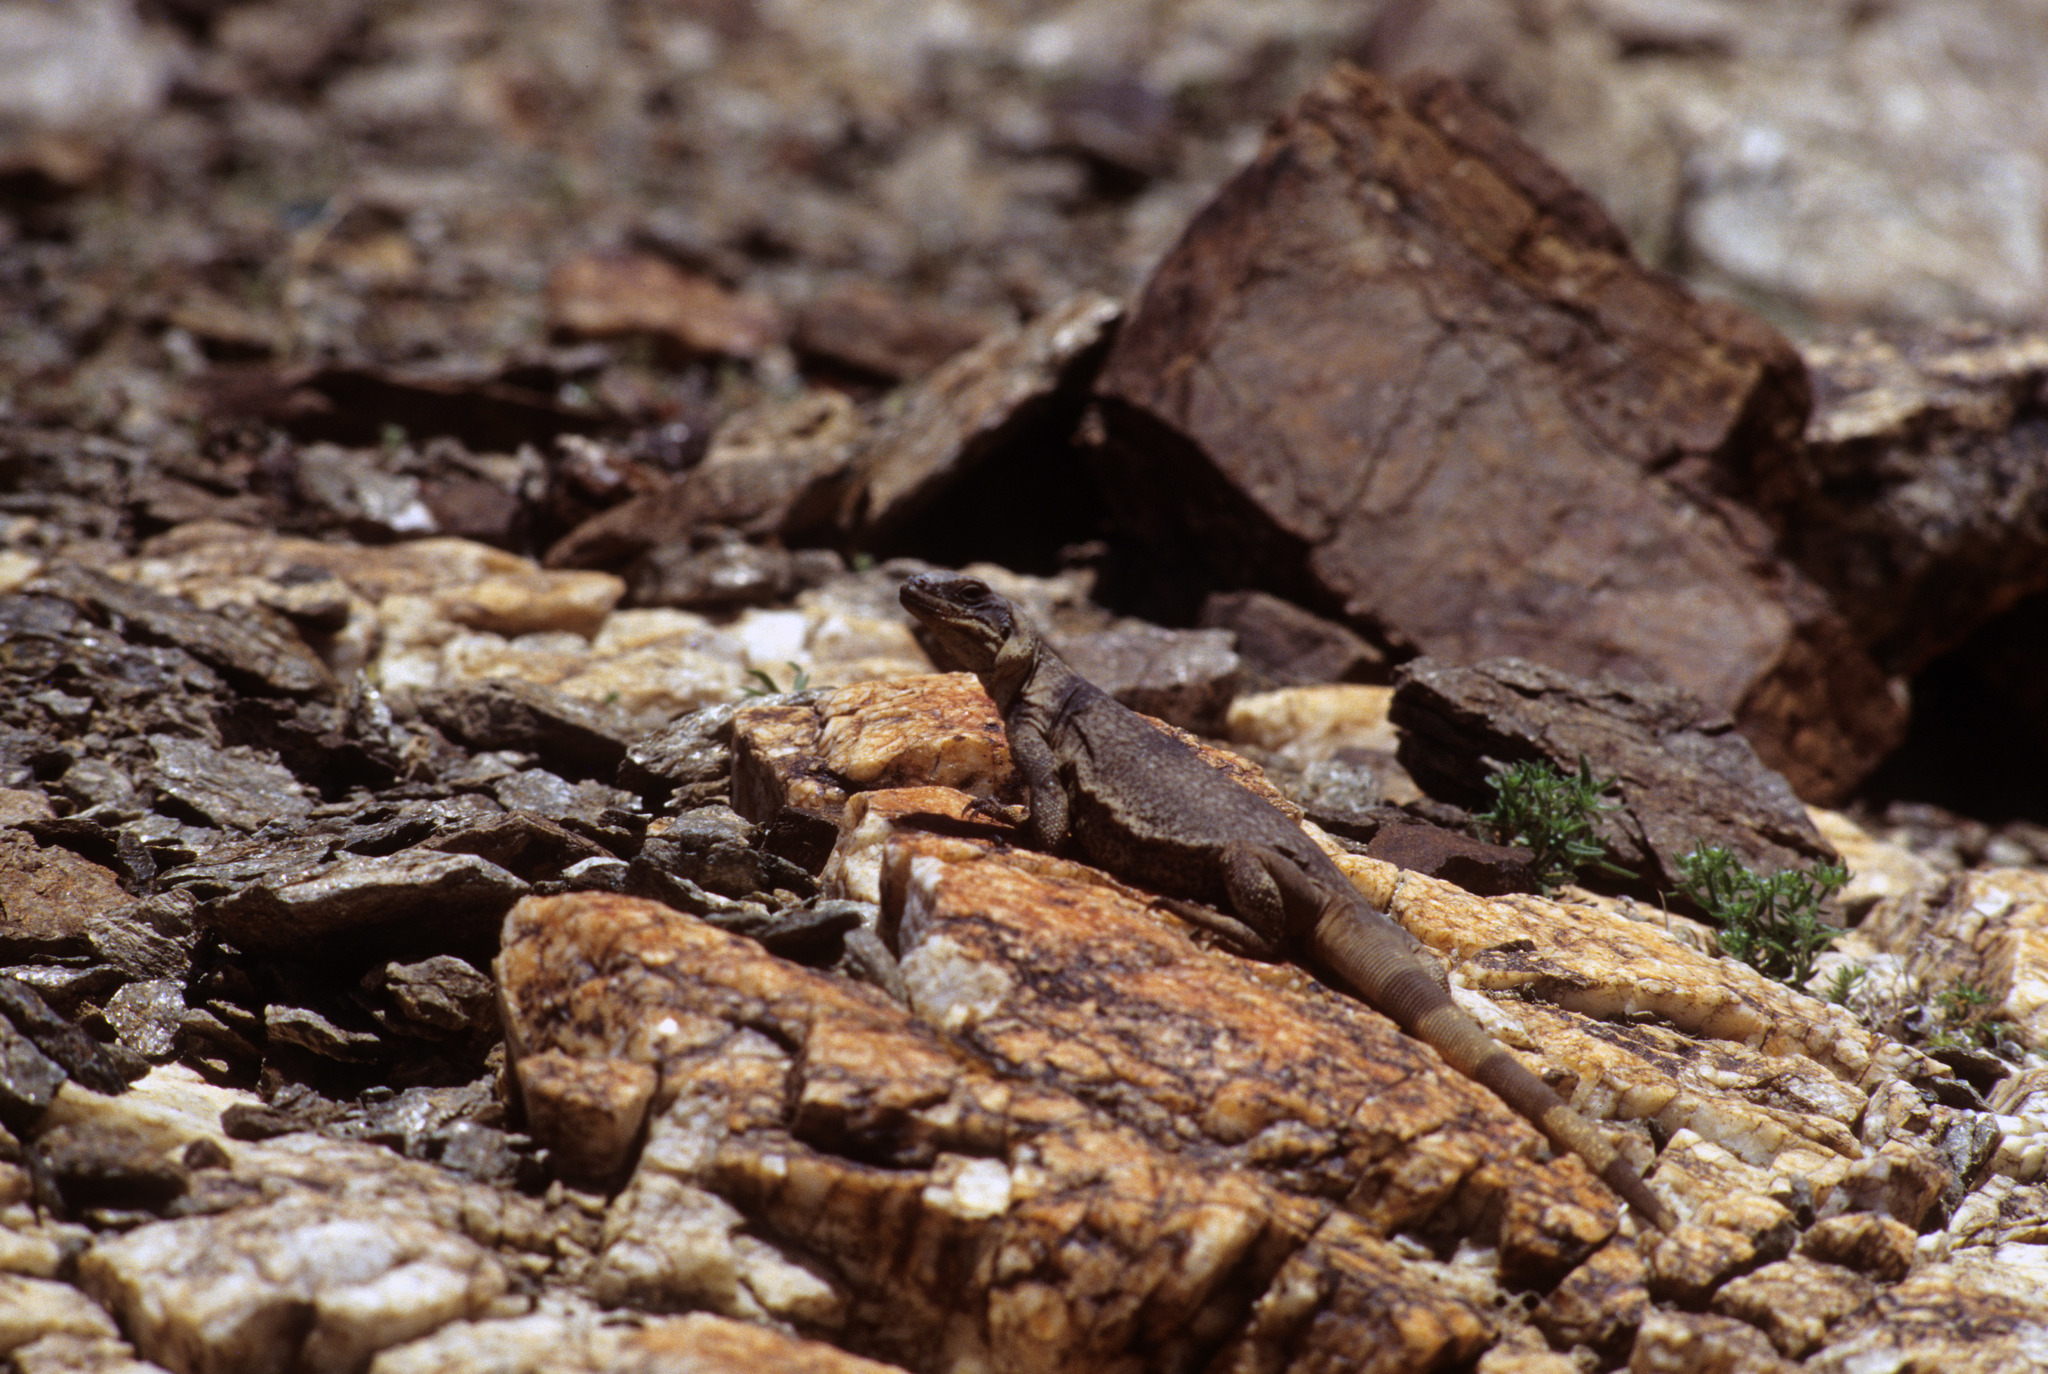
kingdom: Animalia
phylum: Chordata
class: Squamata
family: Iguanidae
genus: Sauromalus
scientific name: Sauromalus ater
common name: Northern chuckwalla
